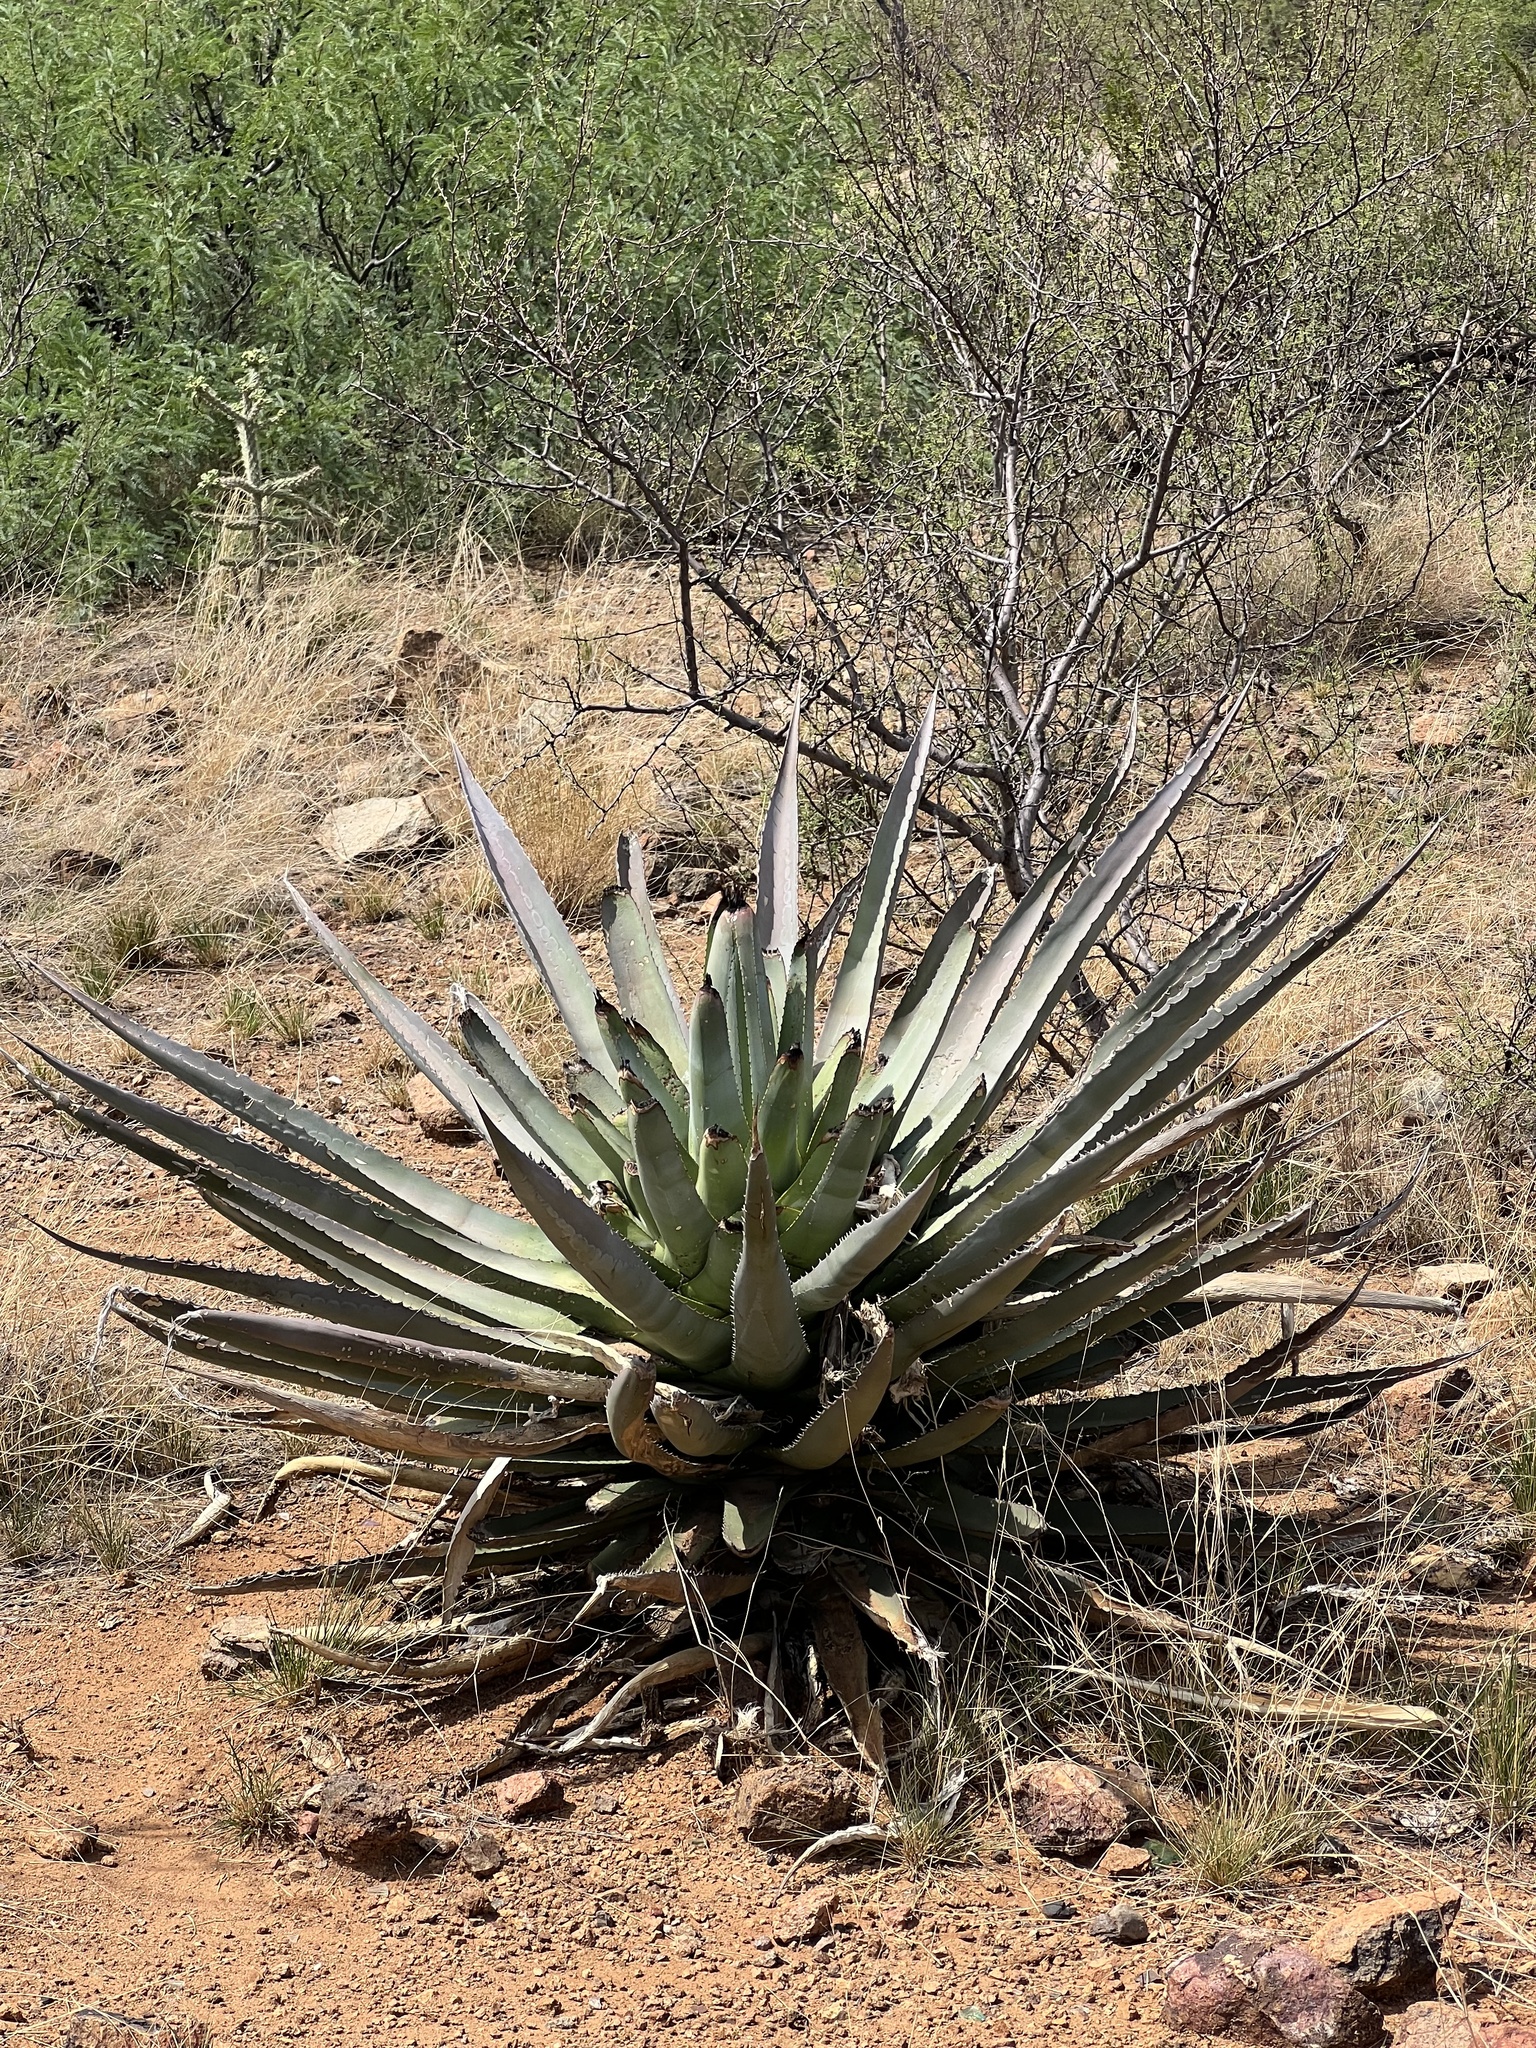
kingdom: Plantae
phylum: Tracheophyta
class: Liliopsida
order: Asparagales
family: Asparagaceae
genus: Agave
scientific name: Agave palmeri
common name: Palmer agave
